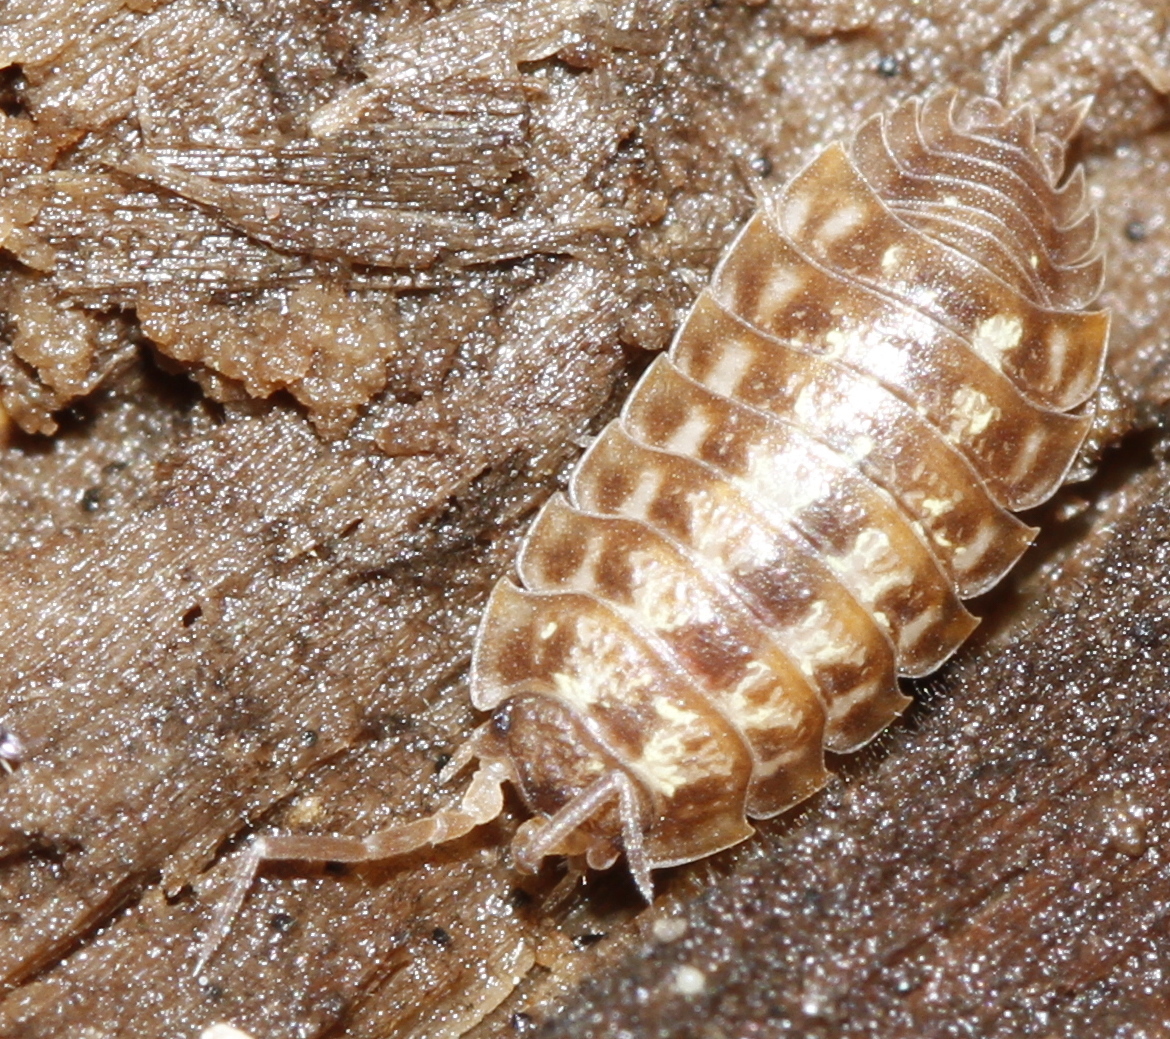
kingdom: Animalia
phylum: Arthropoda
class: Malacostraca
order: Isopoda
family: Oniscidae
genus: Oniscus
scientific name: Oniscus asellus
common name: Common shiny woodlouse
